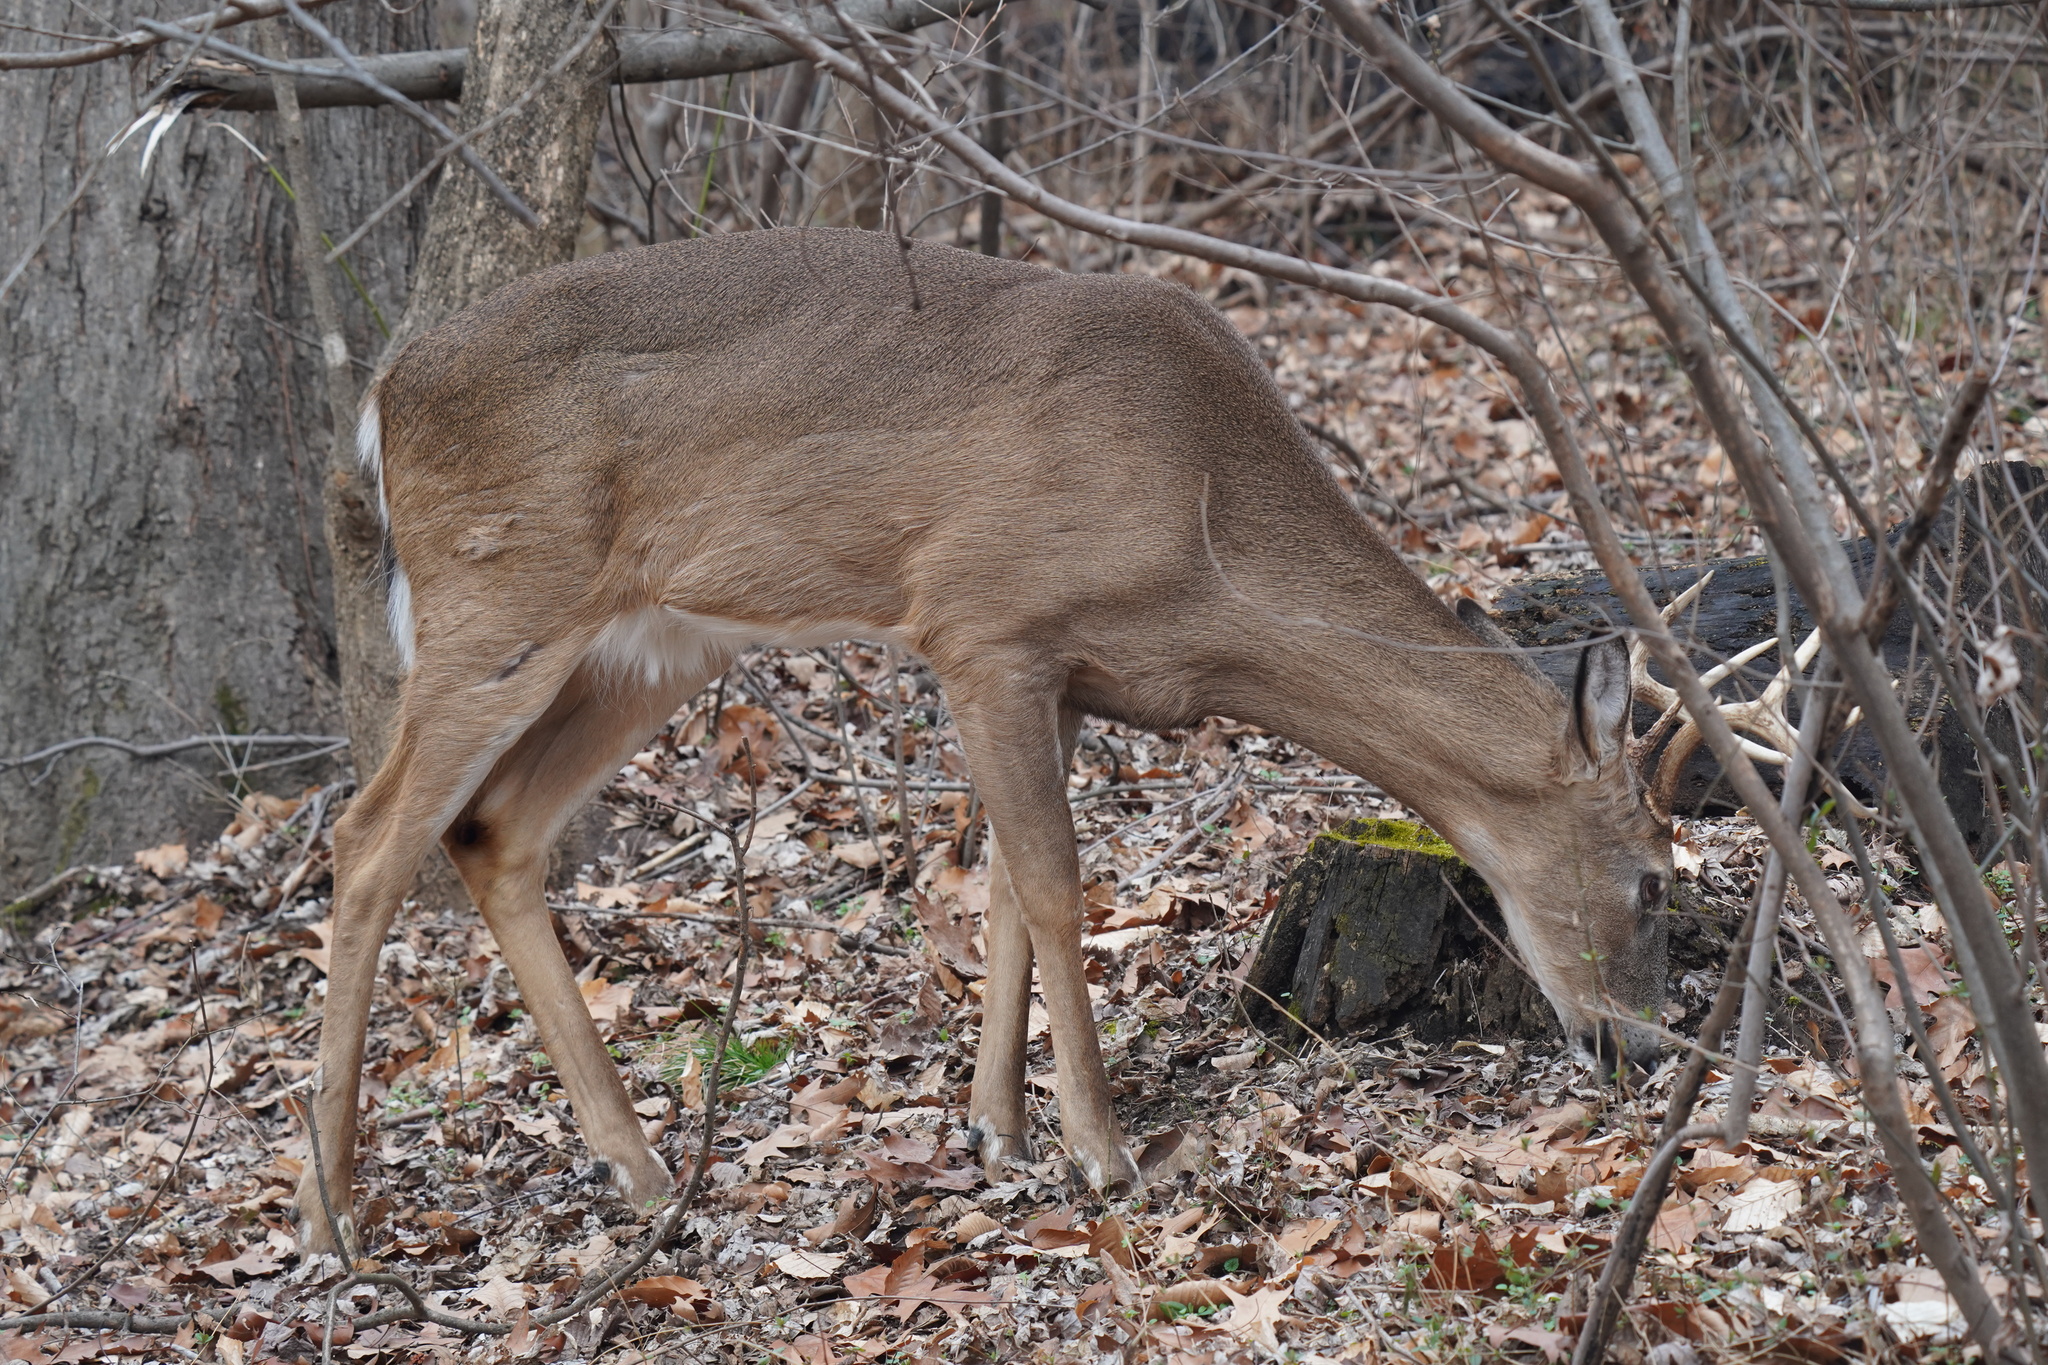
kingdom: Animalia
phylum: Chordata
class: Mammalia
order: Artiodactyla
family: Cervidae
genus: Odocoileus
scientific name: Odocoileus virginianus
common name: White-tailed deer
